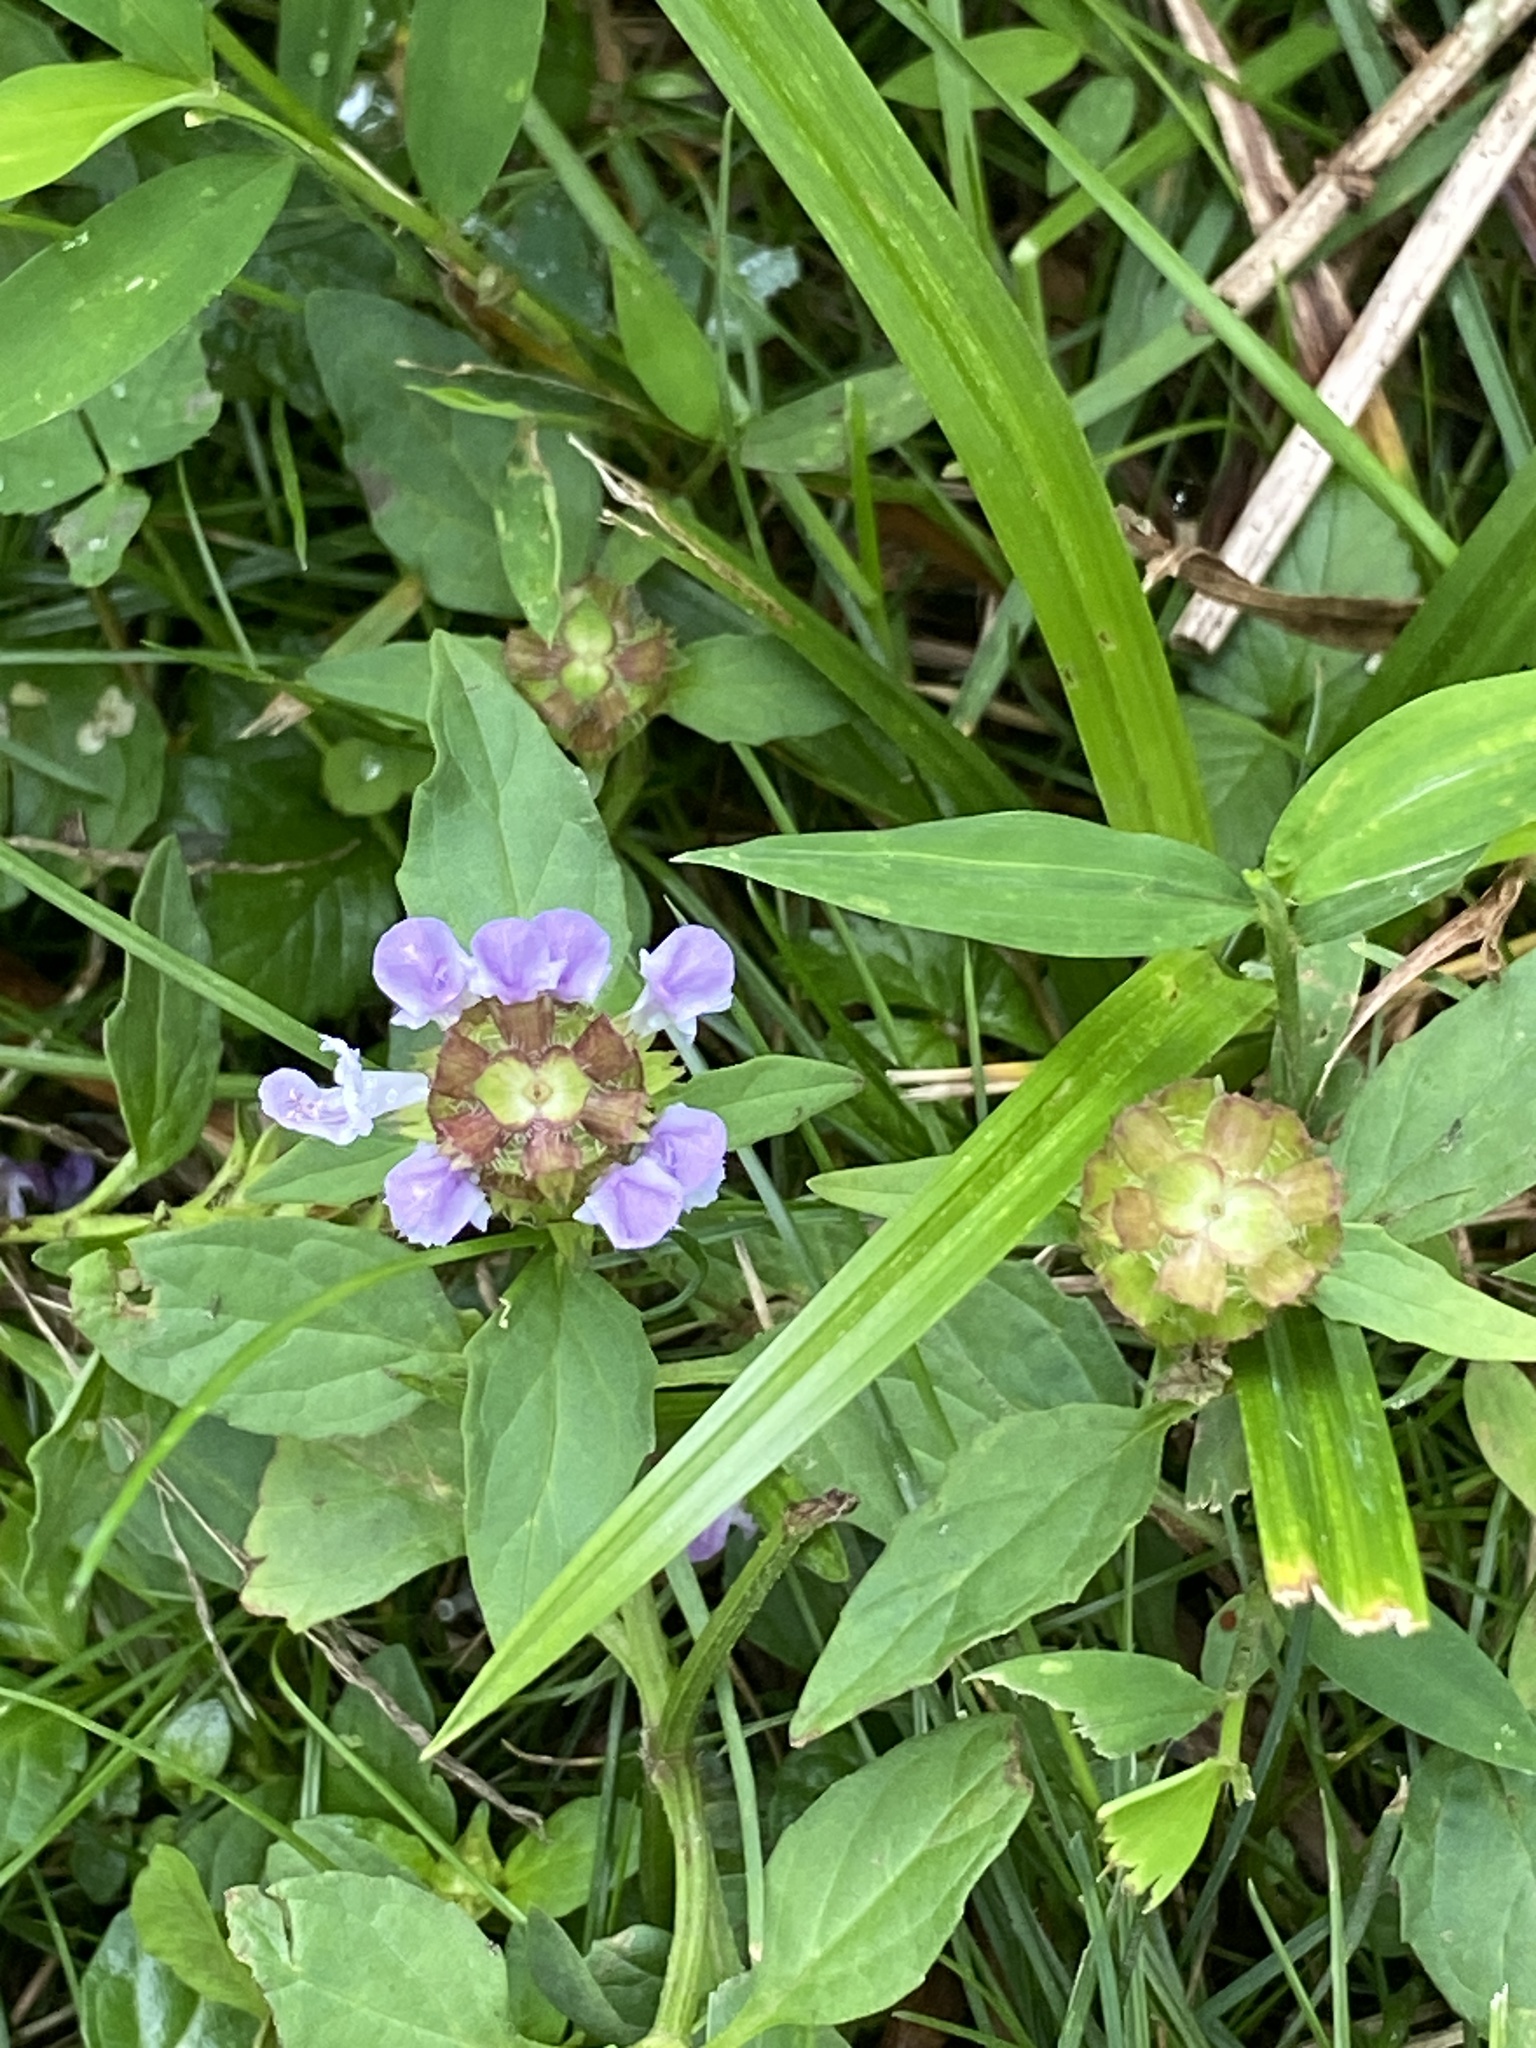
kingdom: Plantae
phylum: Tracheophyta
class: Magnoliopsida
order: Lamiales
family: Lamiaceae
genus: Prunella
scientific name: Prunella vulgaris
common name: Heal-all
